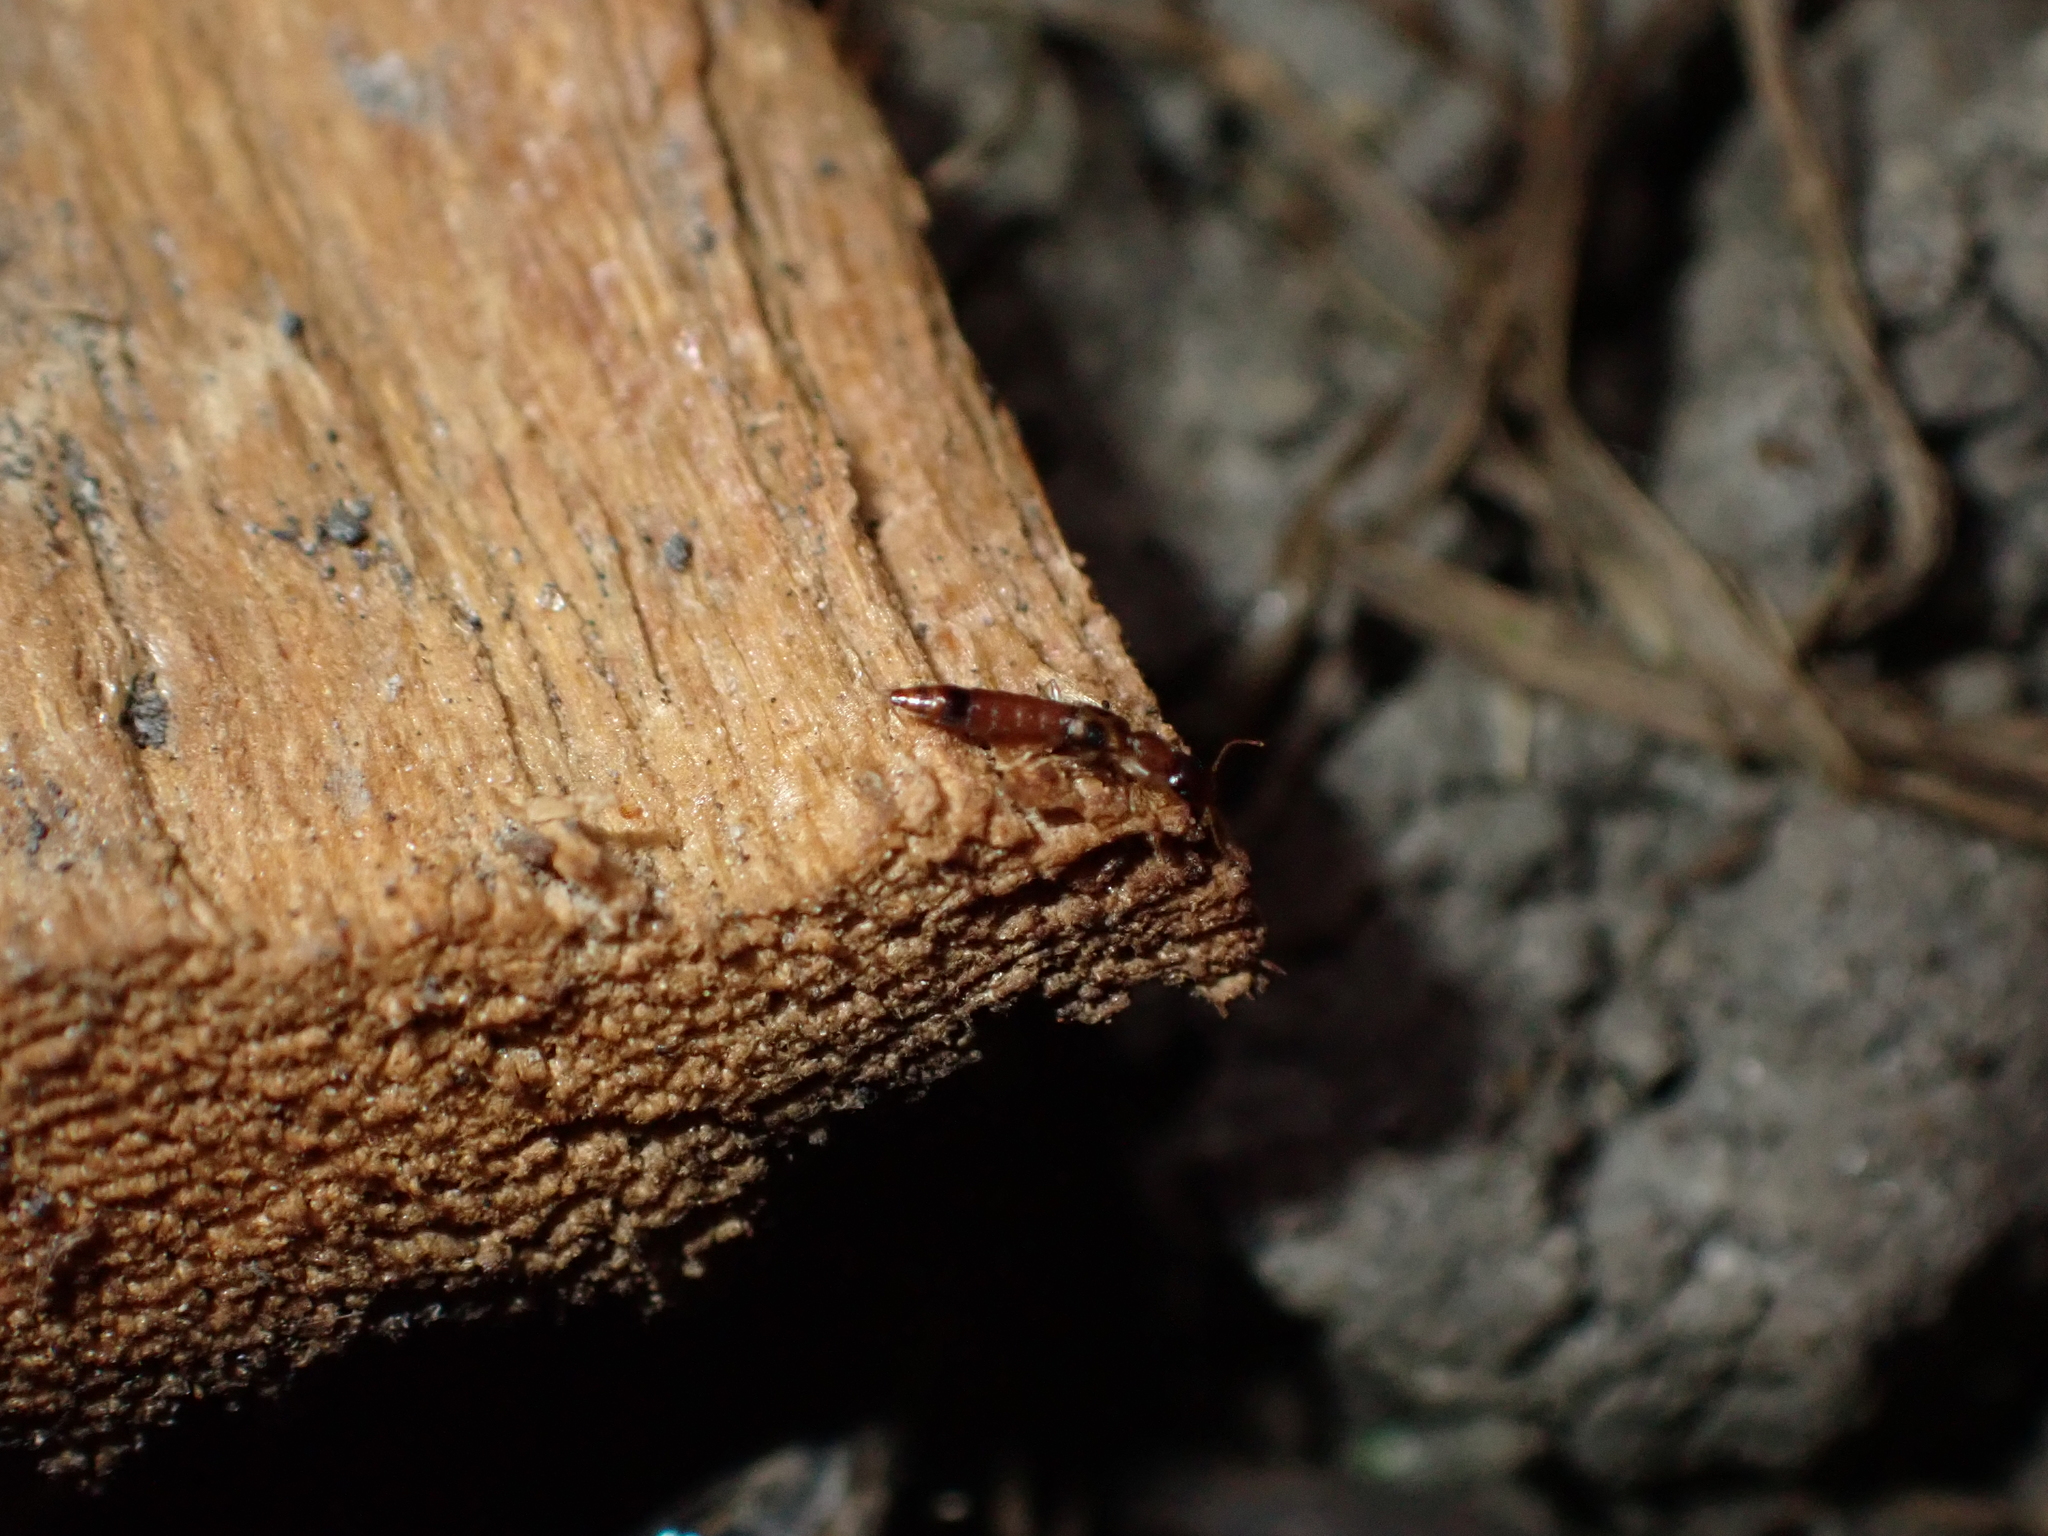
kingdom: Animalia
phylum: Arthropoda
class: Insecta
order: Coleoptera
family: Staphylinidae
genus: Astenus
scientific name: Astenus guttulus
